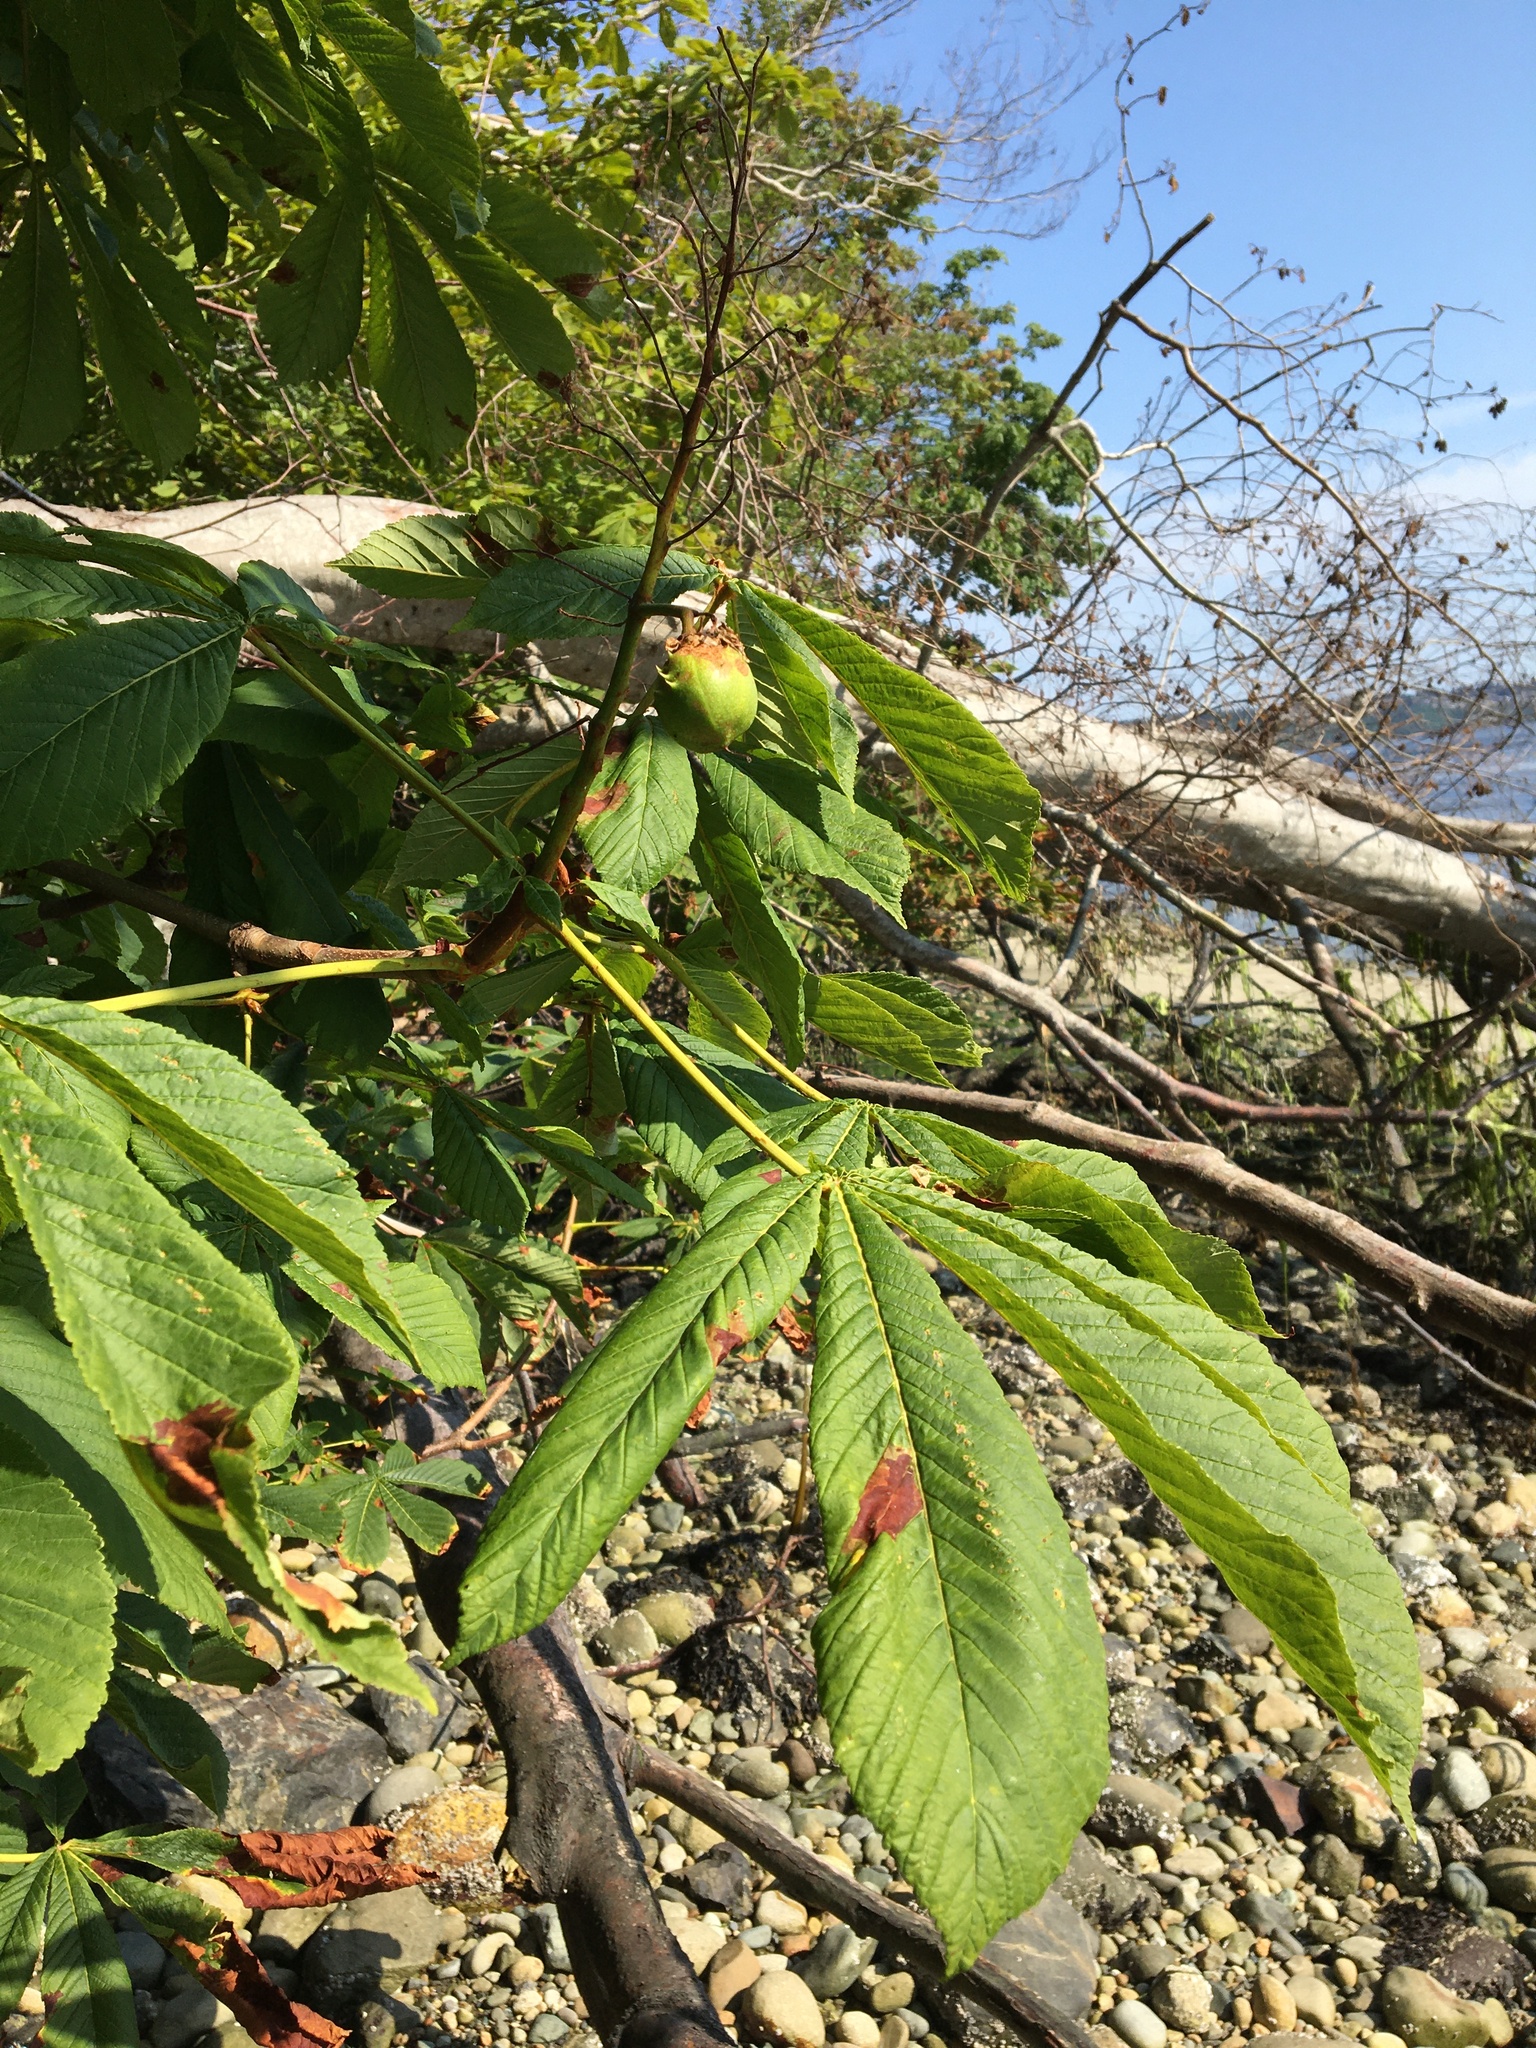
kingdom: Plantae
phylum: Tracheophyta
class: Magnoliopsida
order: Sapindales
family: Sapindaceae
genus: Aesculus
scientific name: Aesculus hippocastanum
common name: Horse-chestnut
